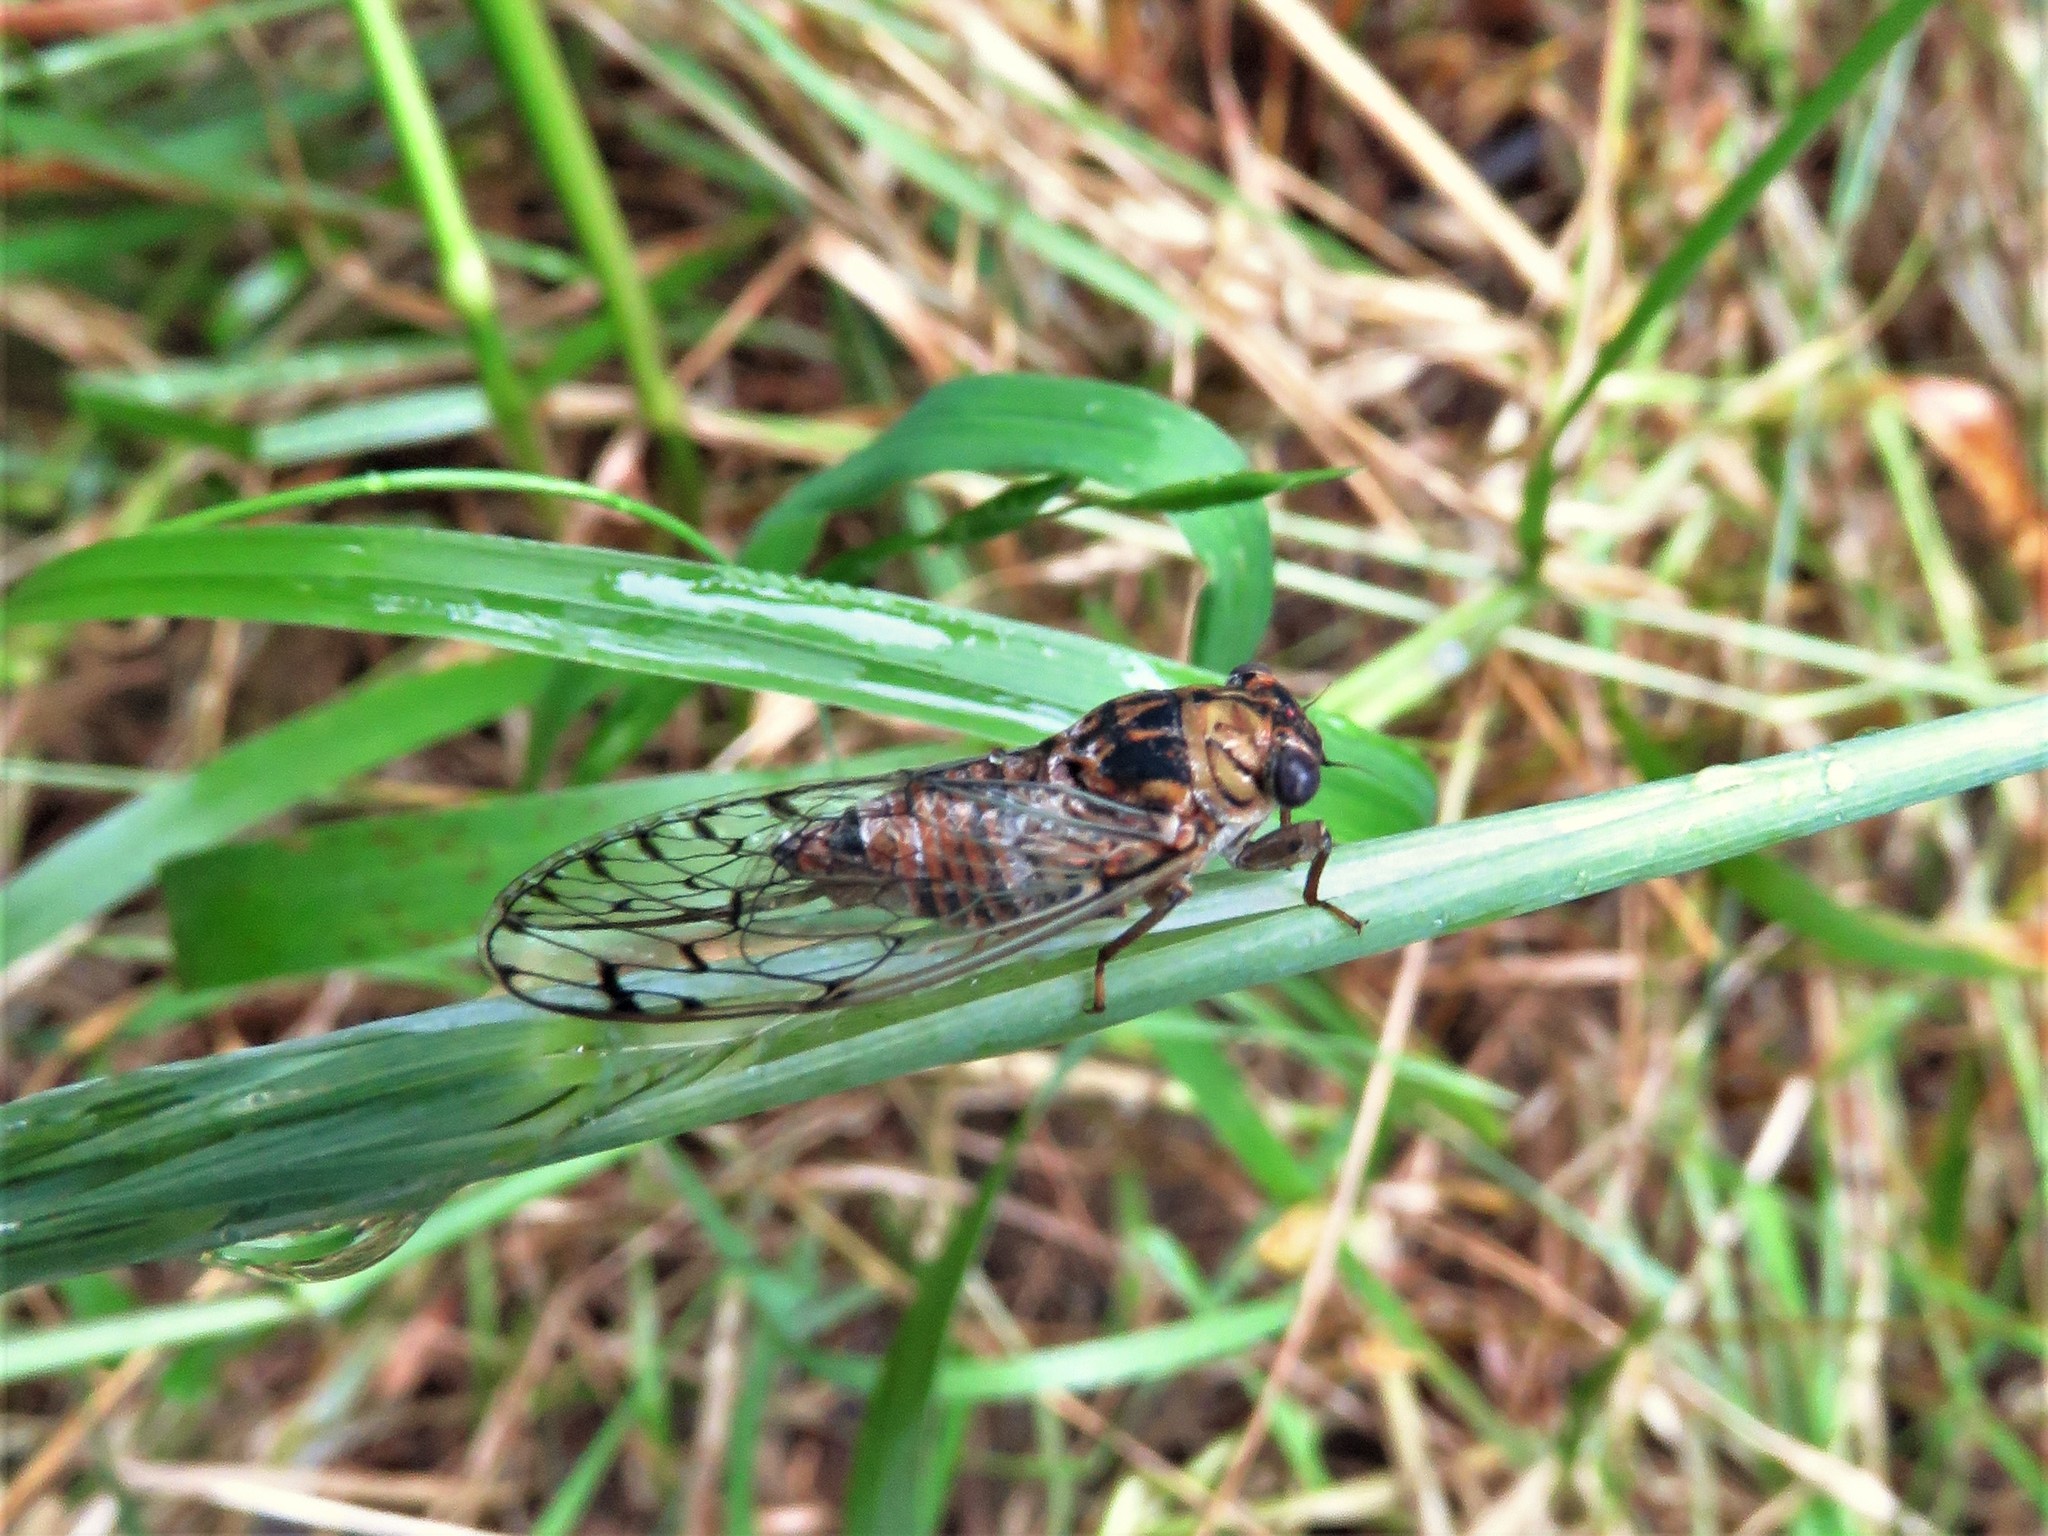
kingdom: Animalia
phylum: Arthropoda
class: Insecta
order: Hemiptera
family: Cicadidae
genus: Pacarina
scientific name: Pacarina puella
